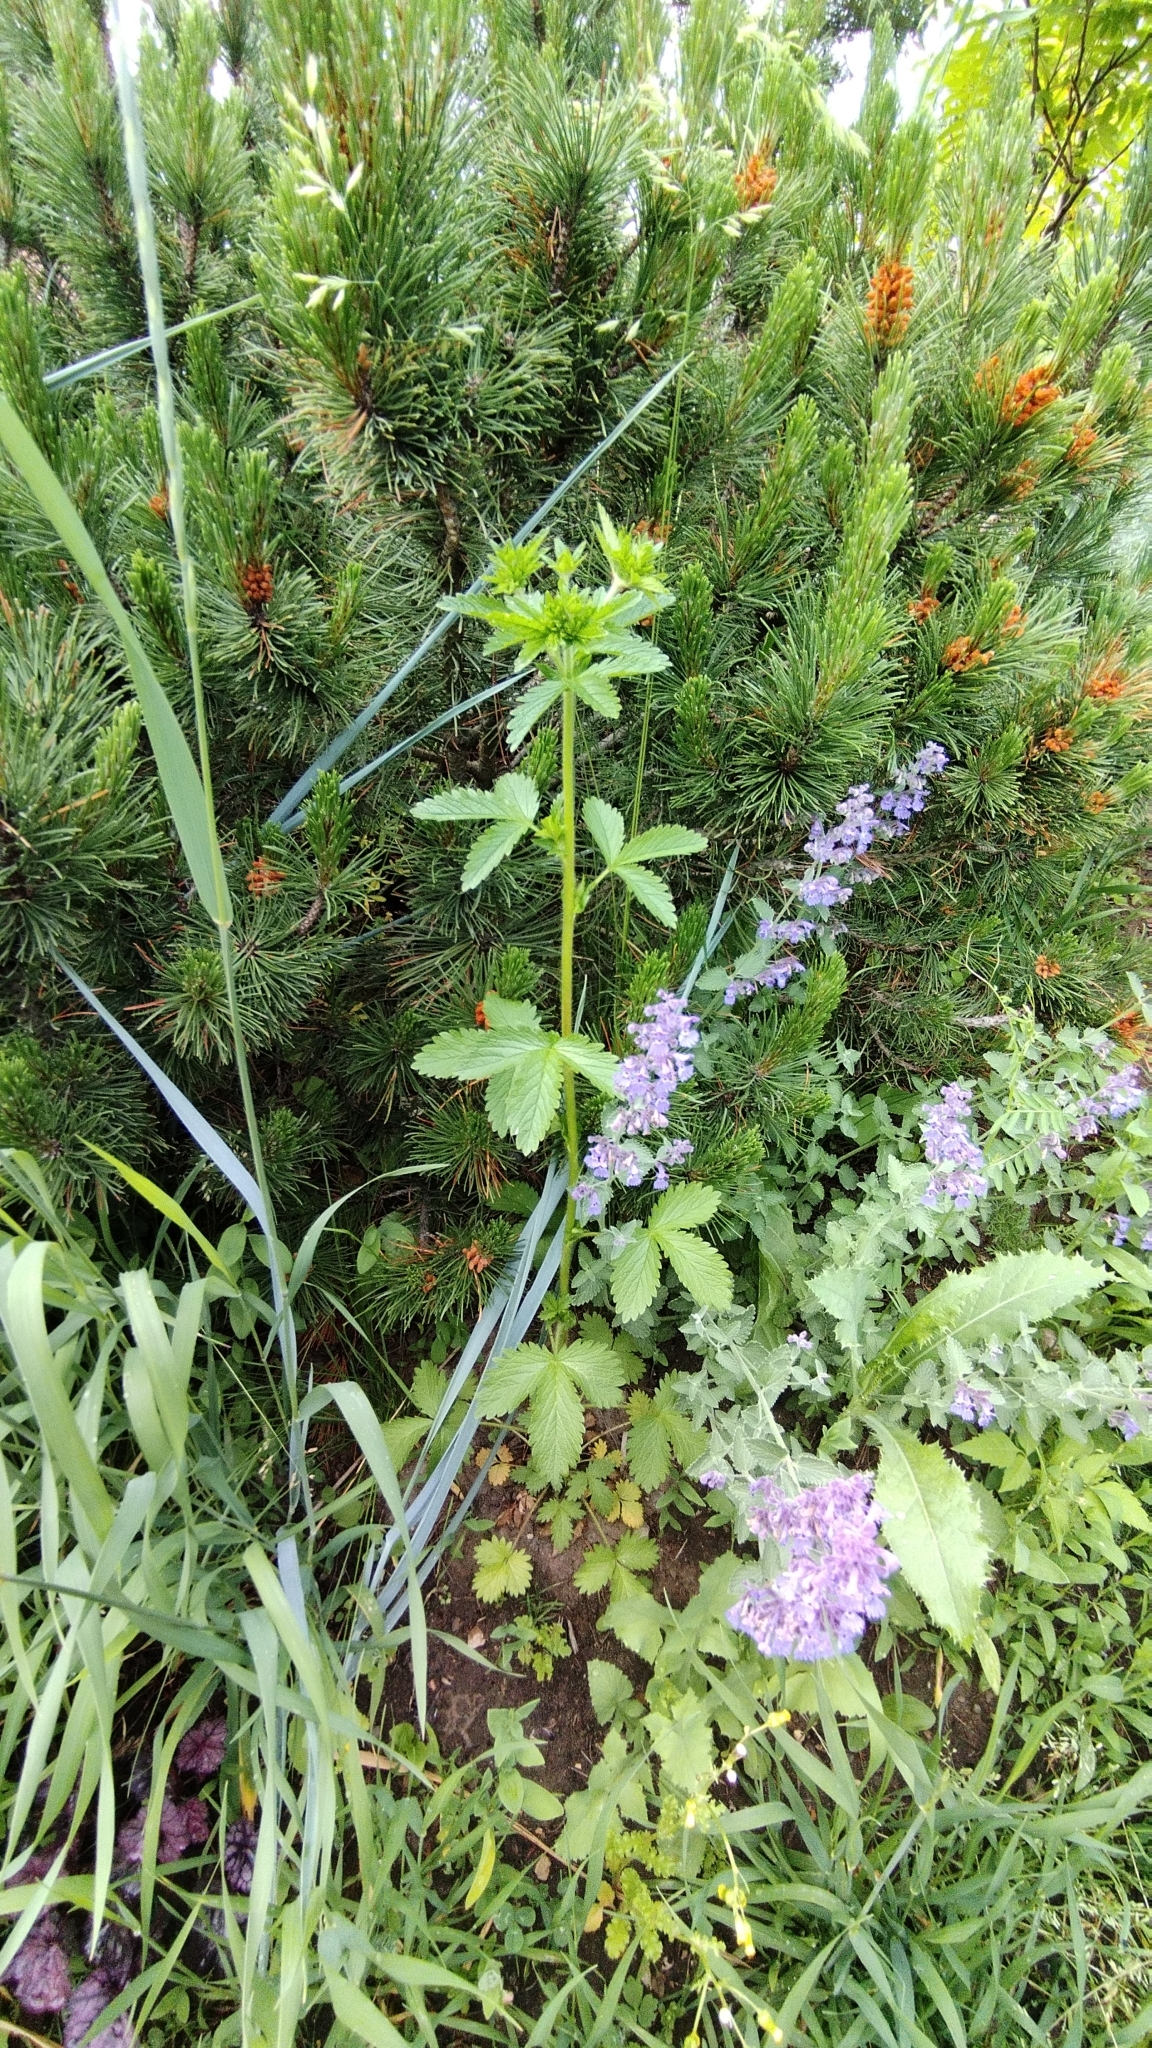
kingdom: Plantae
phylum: Tracheophyta
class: Magnoliopsida
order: Rosales
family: Rosaceae
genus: Potentilla
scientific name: Potentilla norvegica
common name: Ternate-leaved cinquefoil
